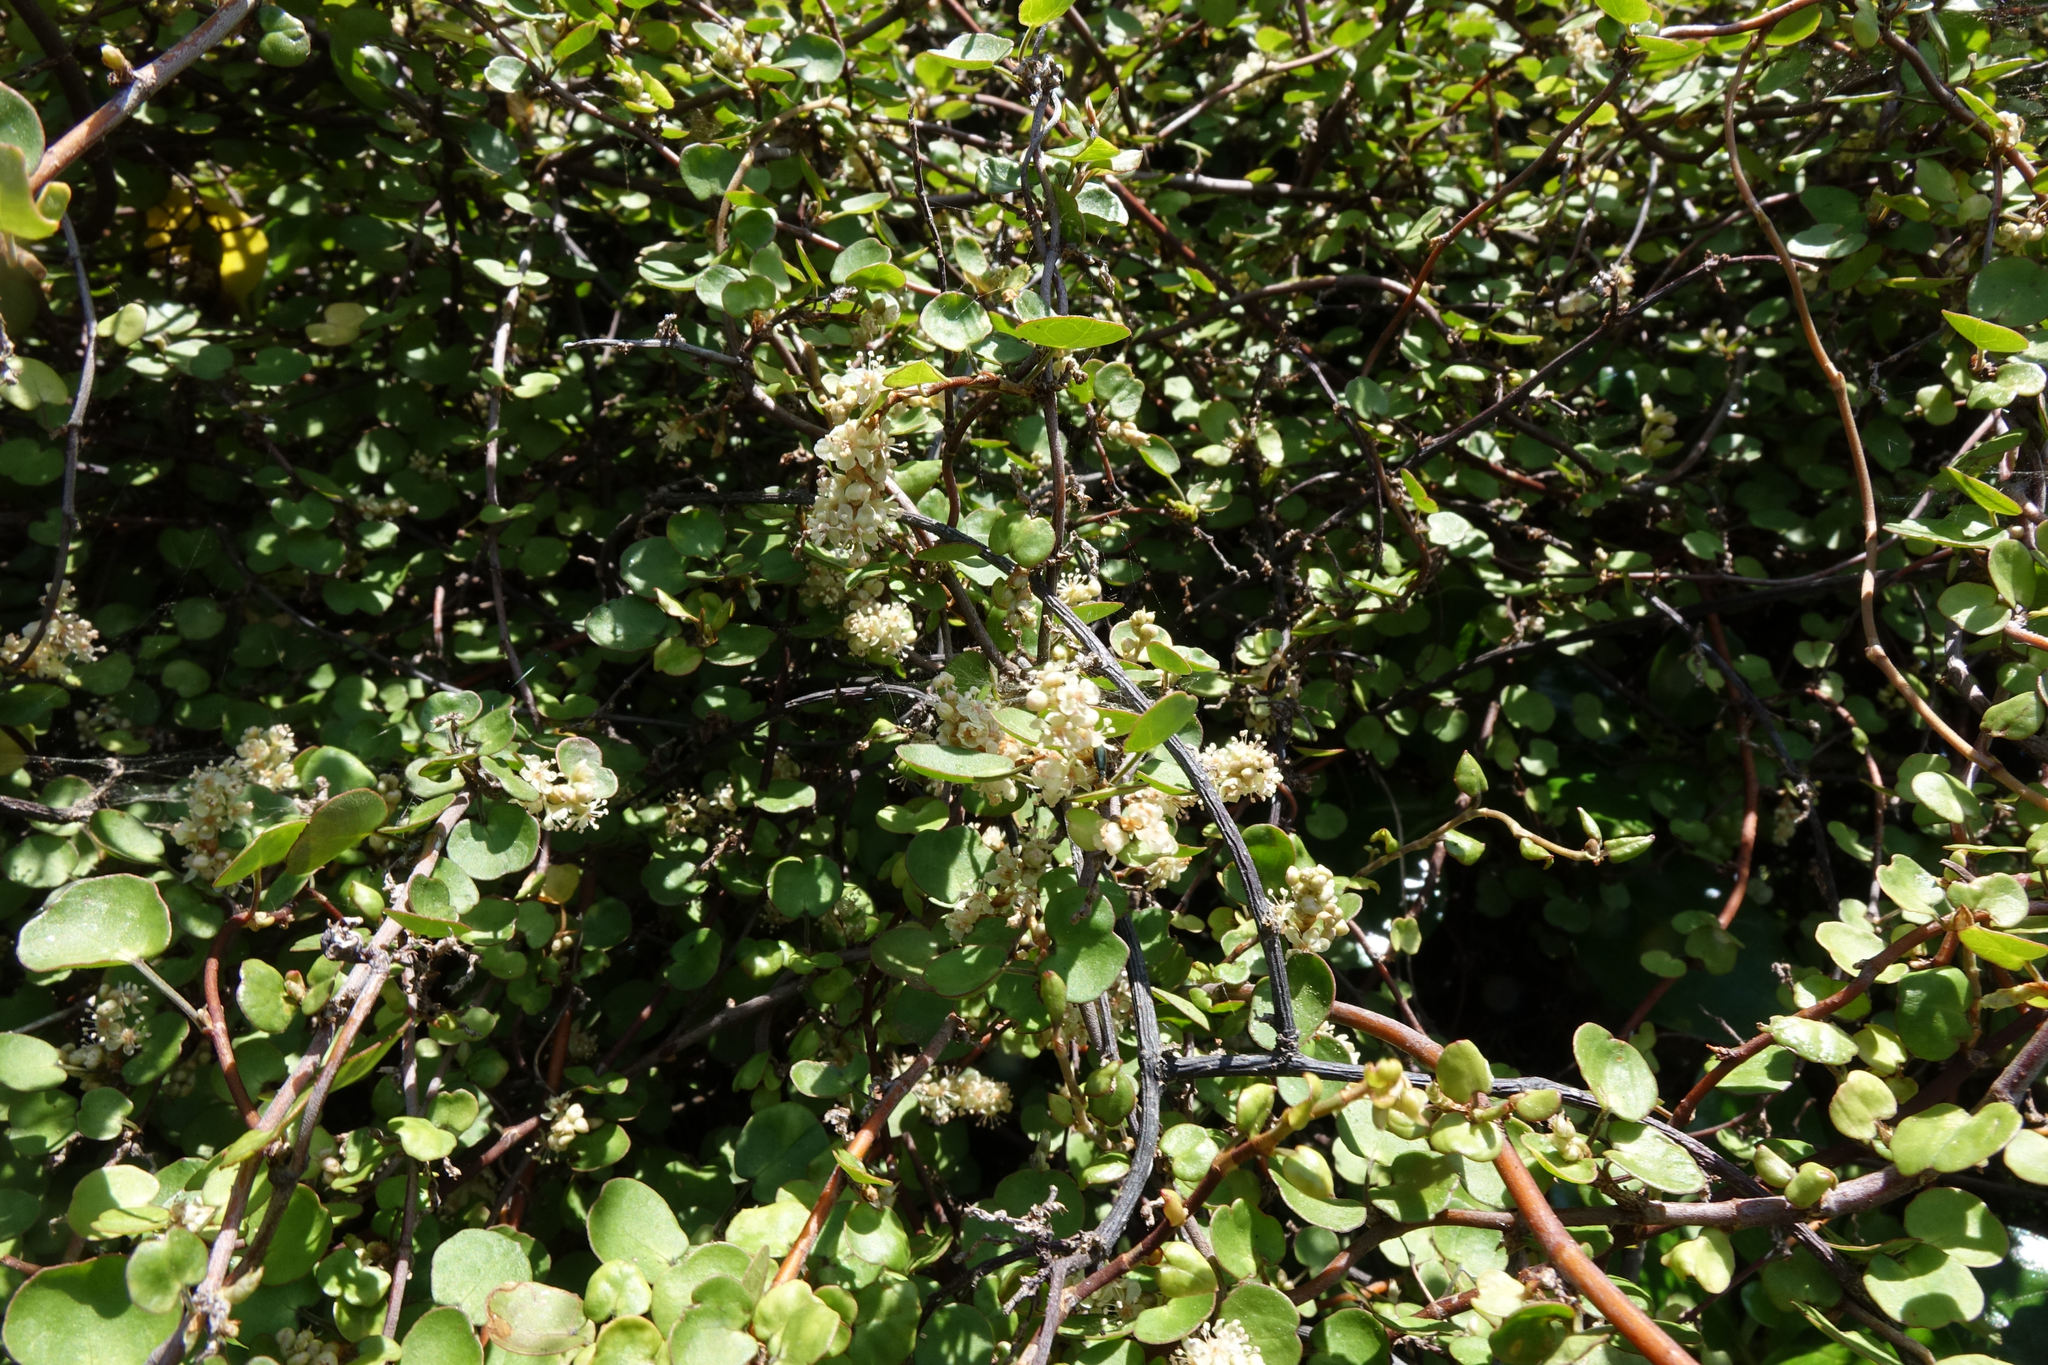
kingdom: Plantae
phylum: Tracheophyta
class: Magnoliopsida
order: Caryophyllales
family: Polygonaceae
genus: Muehlenbeckia
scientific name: Muehlenbeckia complexa
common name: Wireplant
